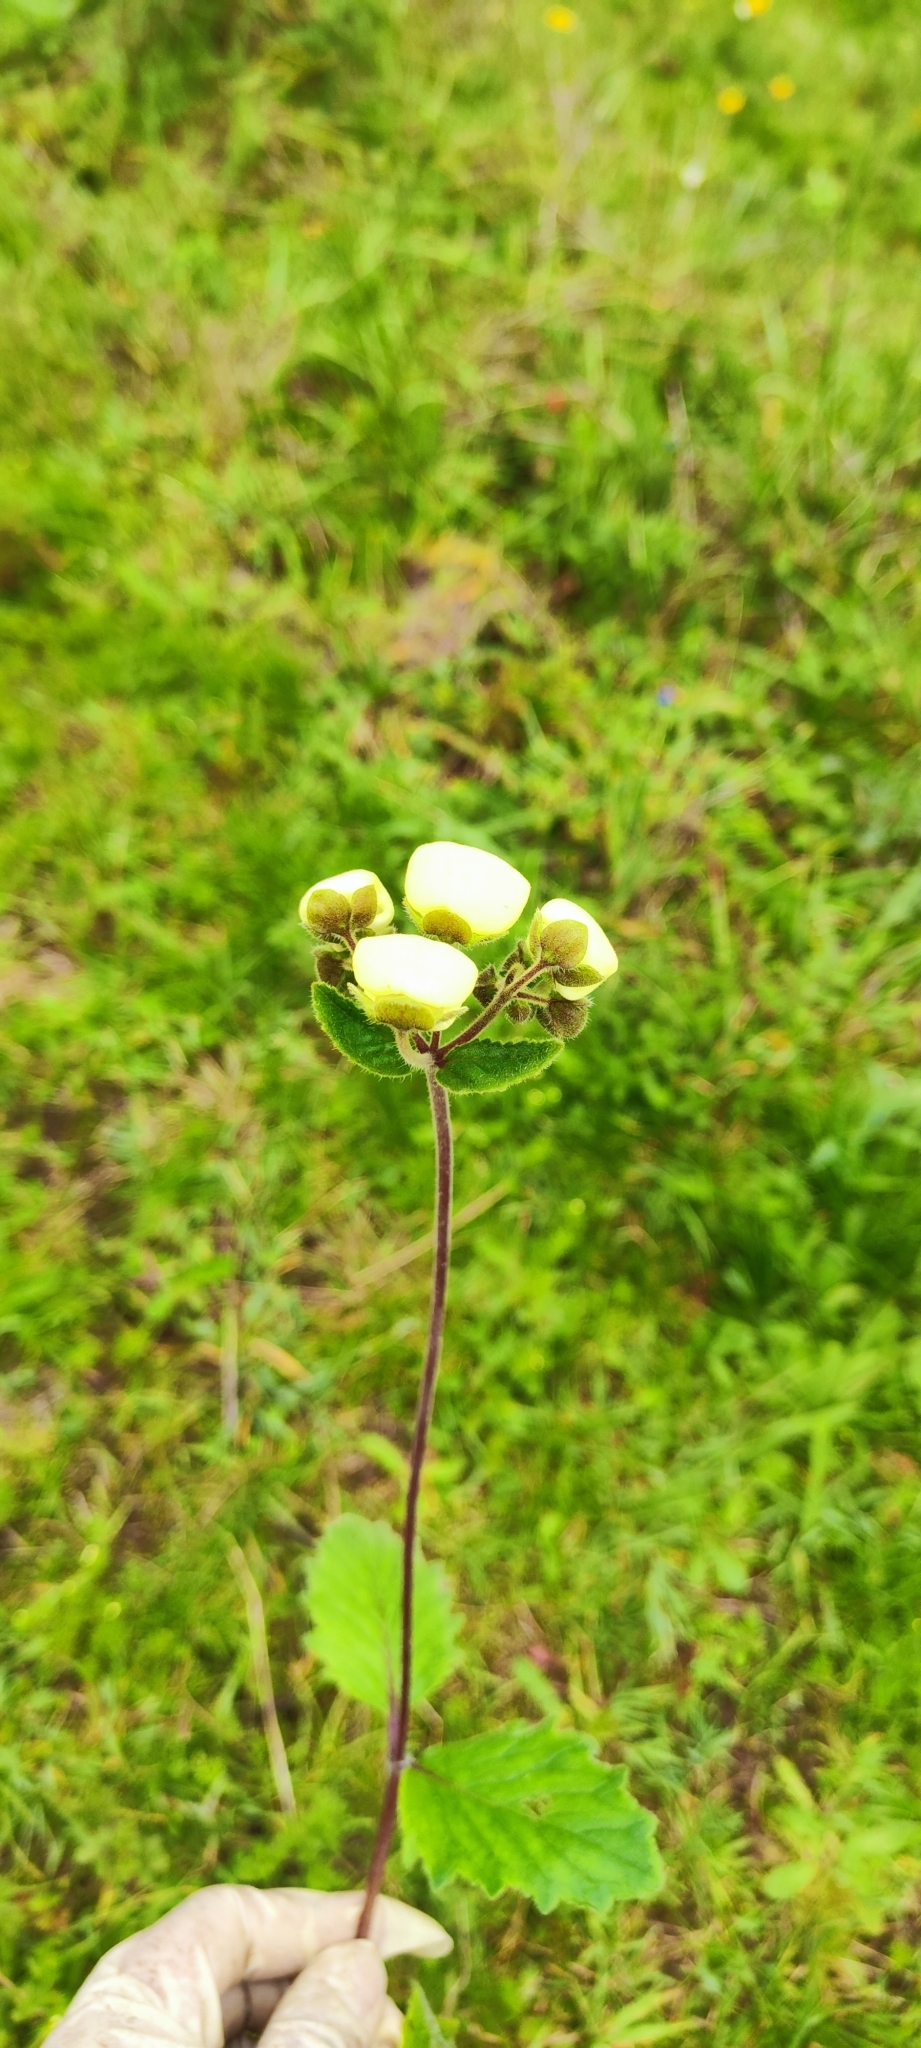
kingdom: Plantae
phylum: Tracheophyta
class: Magnoliopsida
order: Lamiales
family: Calceolariaceae
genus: Calceolaria
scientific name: Calceolaria hispida
